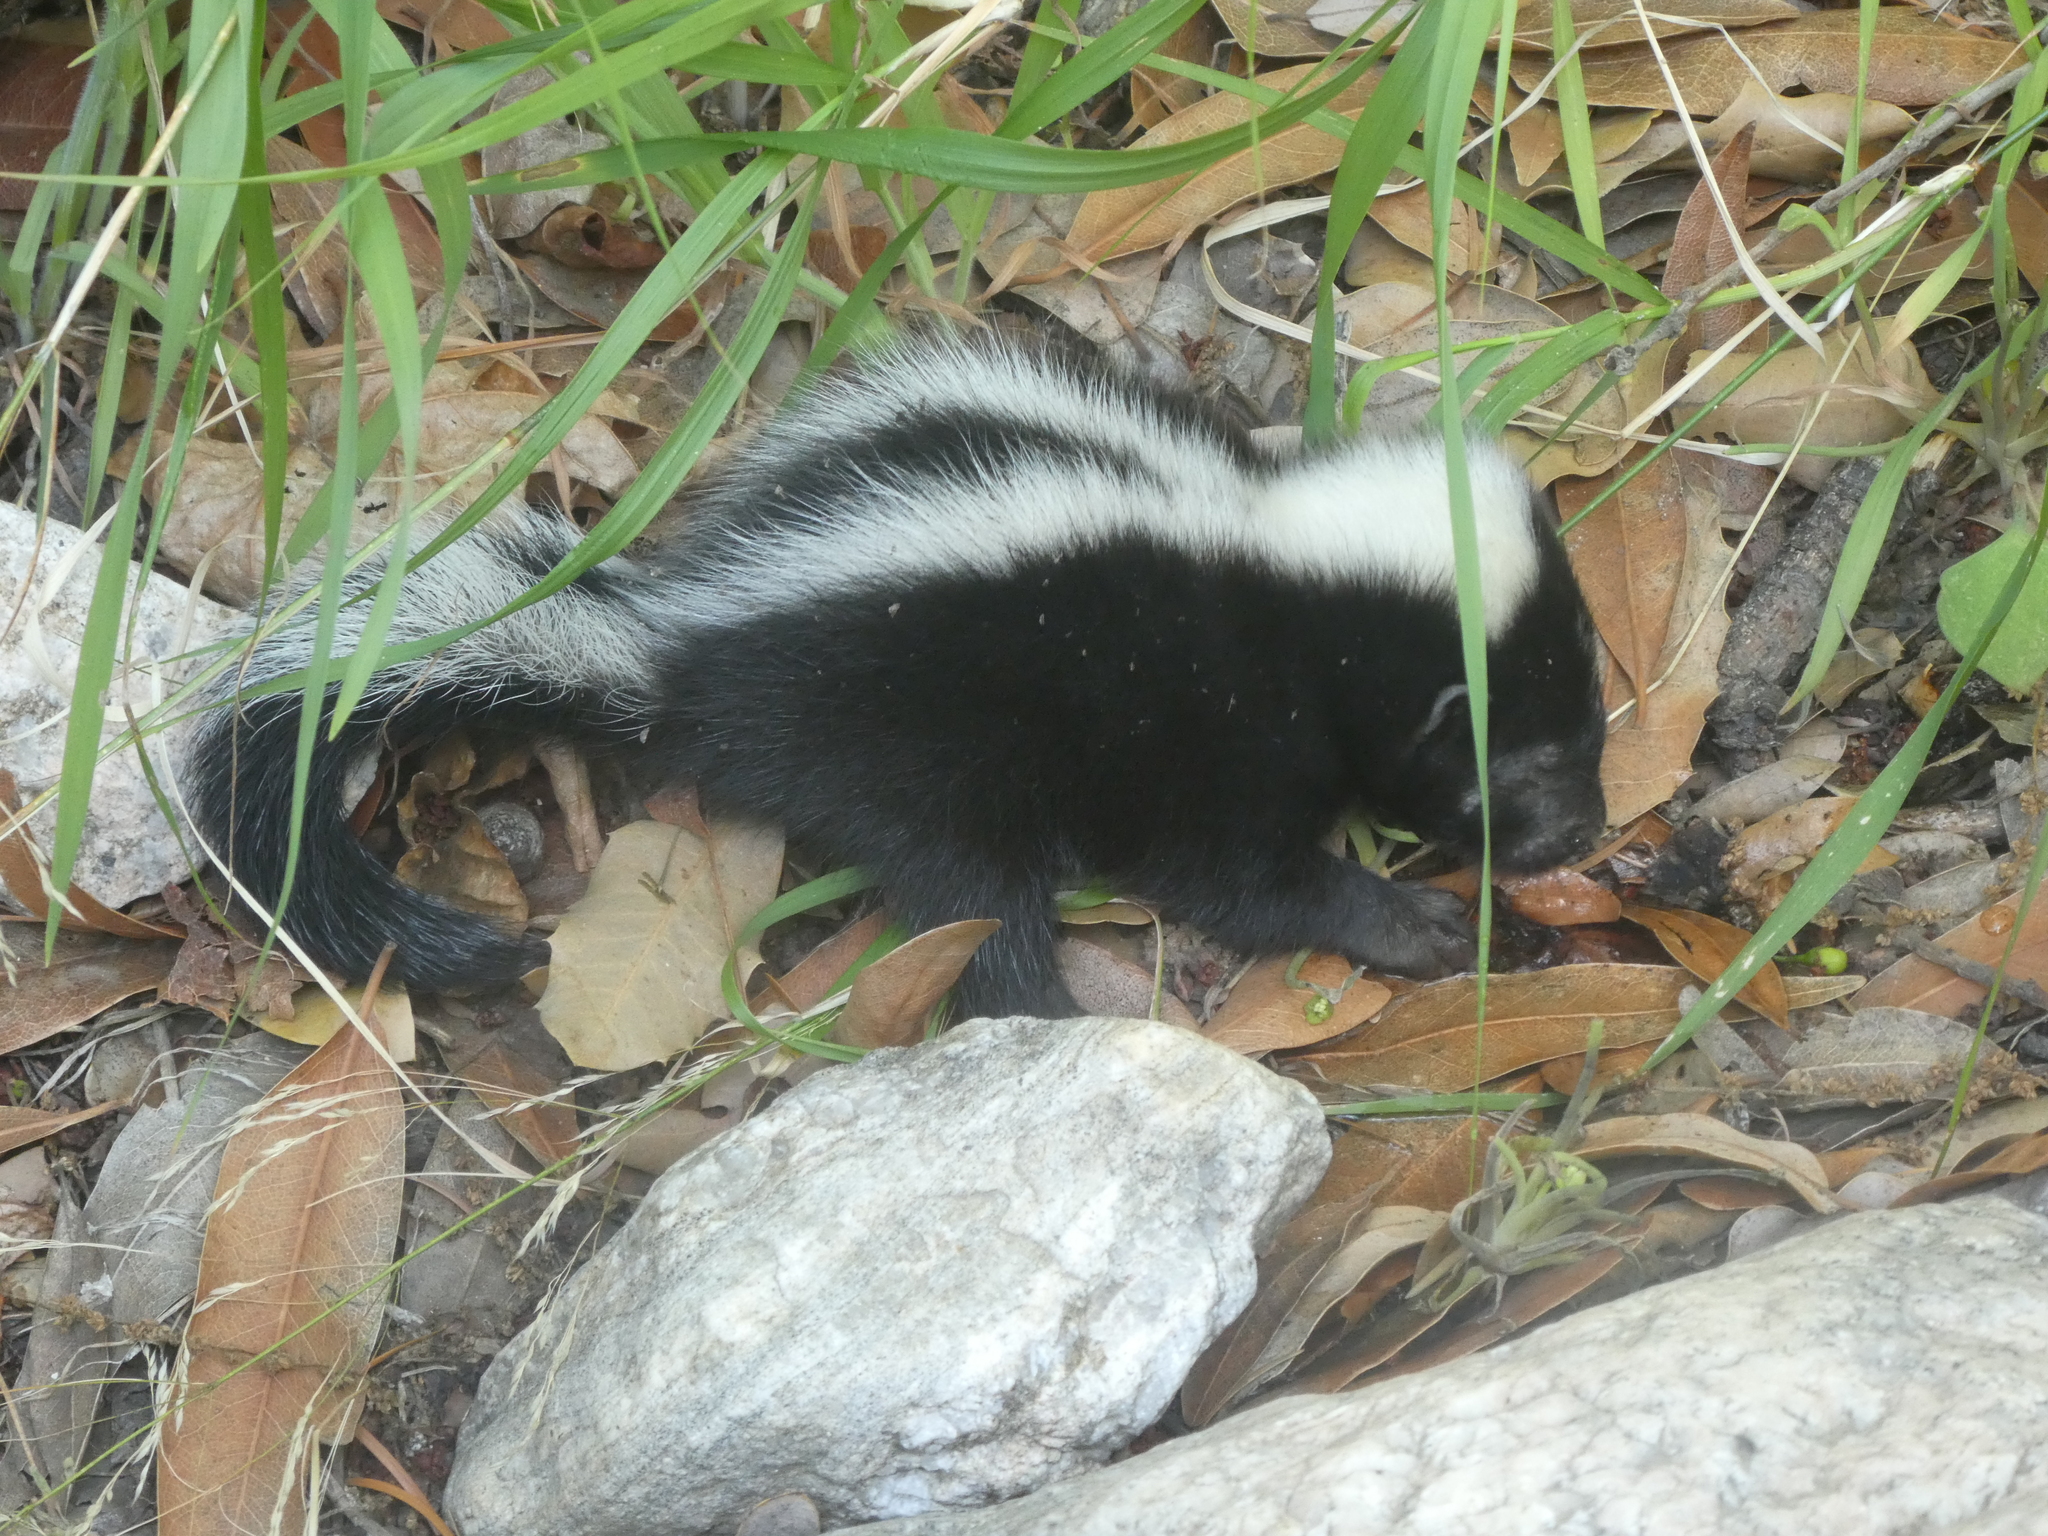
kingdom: Animalia
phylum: Chordata
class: Mammalia
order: Carnivora
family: Mephitidae
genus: Mephitis
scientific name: Mephitis mephitis
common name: Striped skunk
